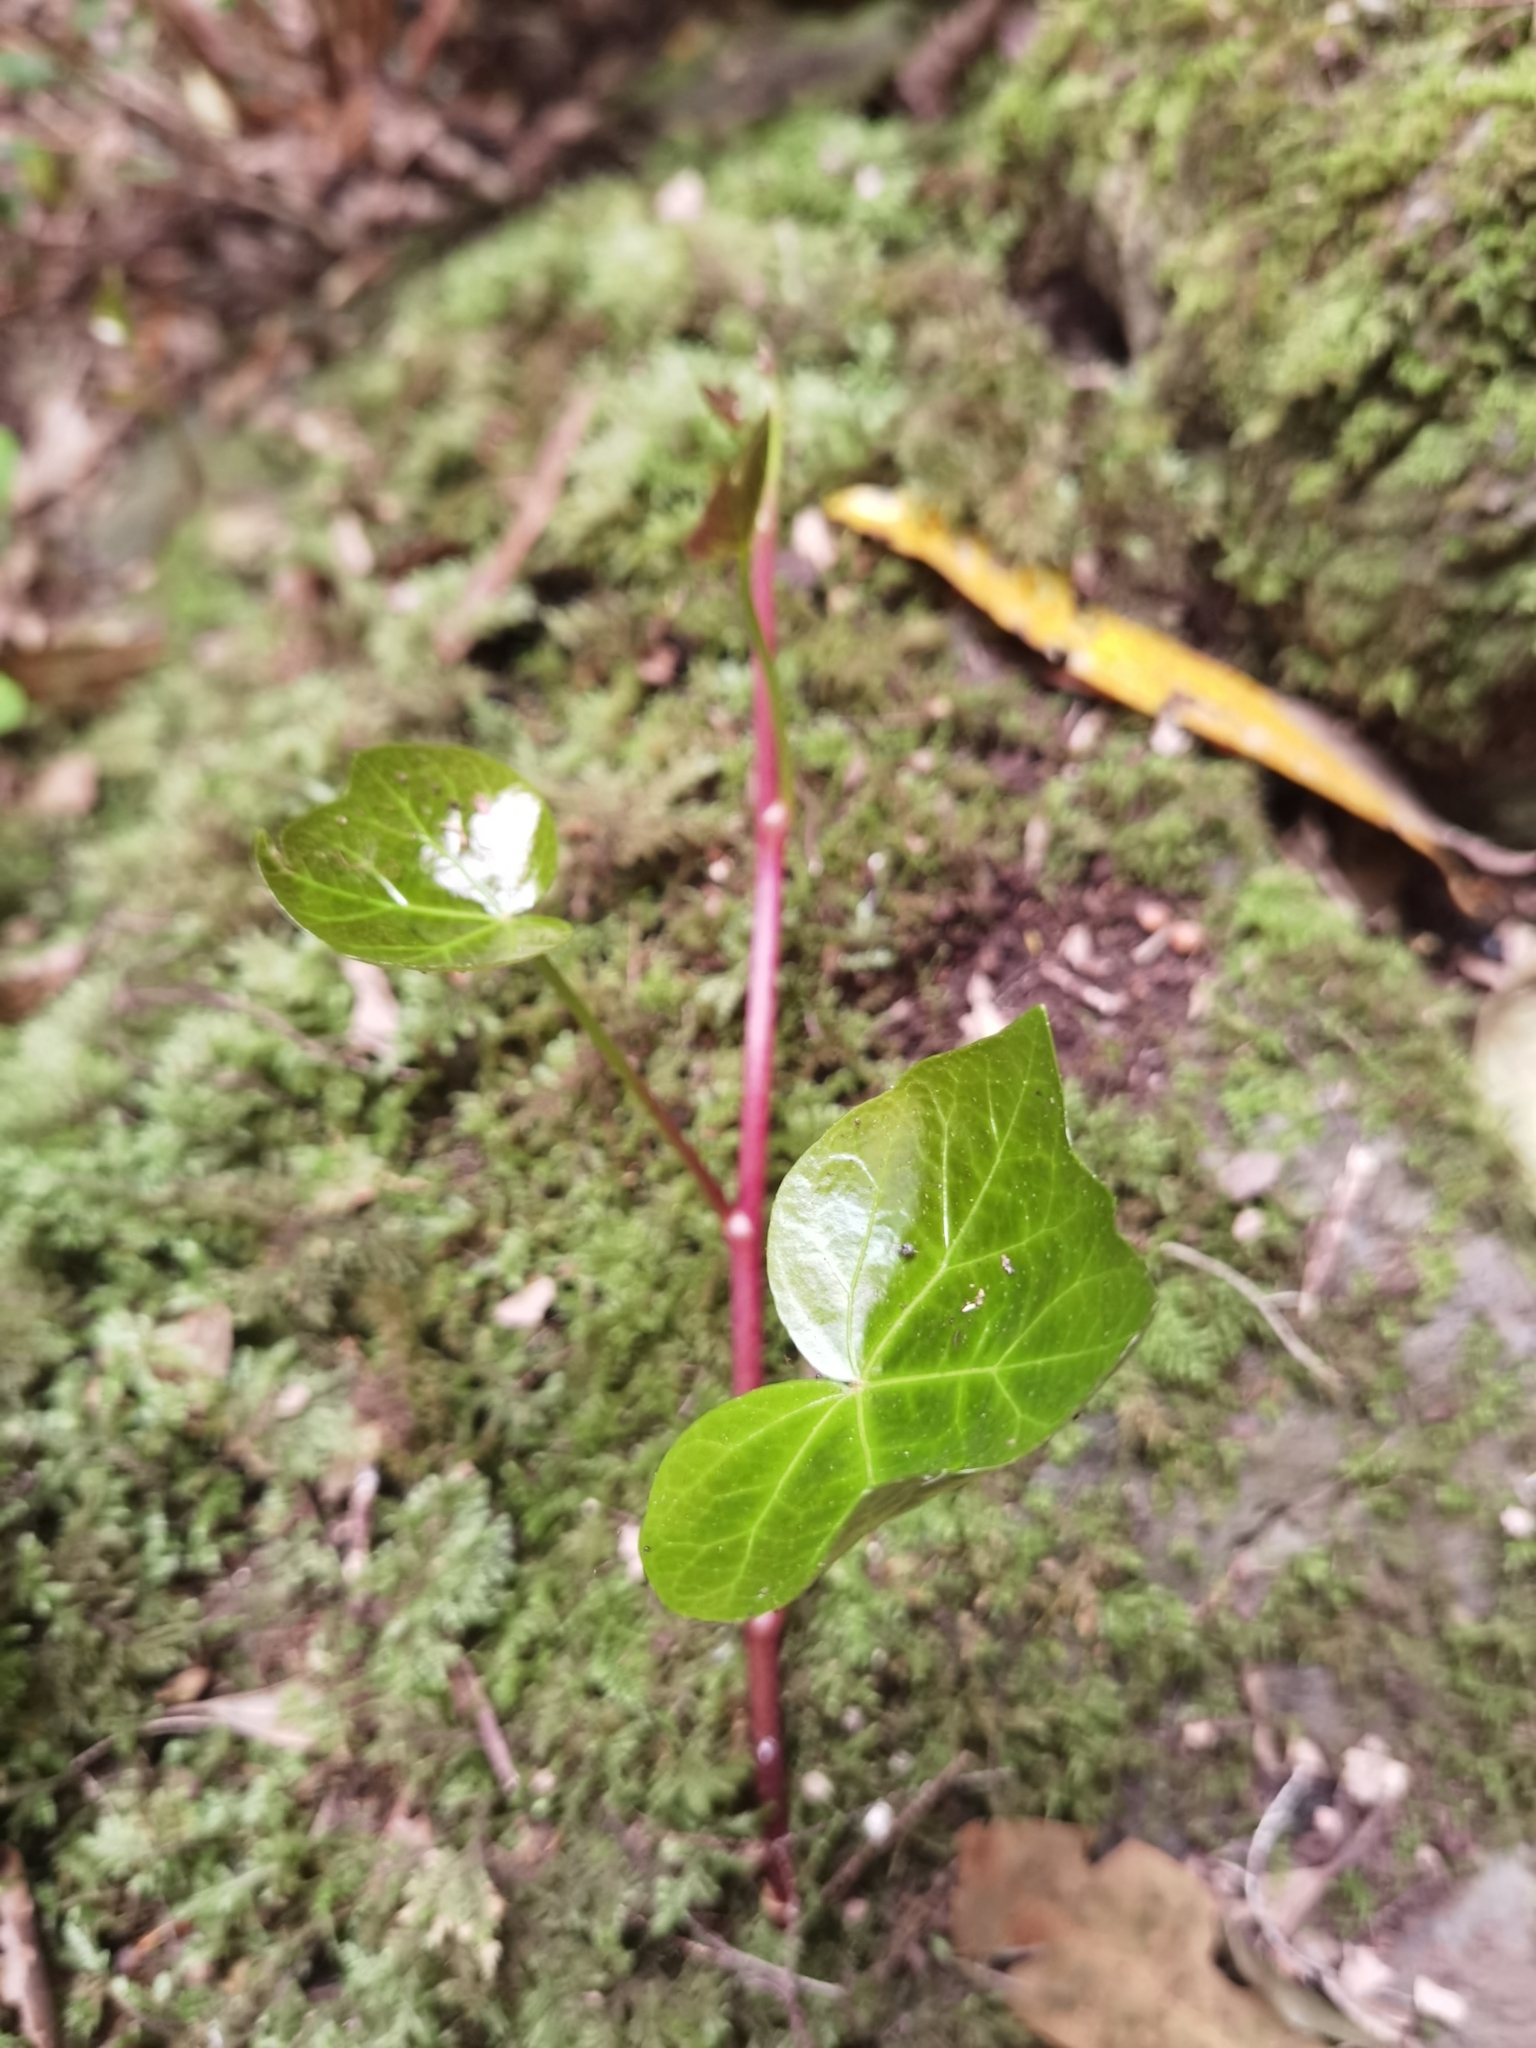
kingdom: Plantae
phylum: Tracheophyta
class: Magnoliopsida
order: Apiales
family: Araliaceae
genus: Hedera
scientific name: Hedera canariensis
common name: Madeira ivy
